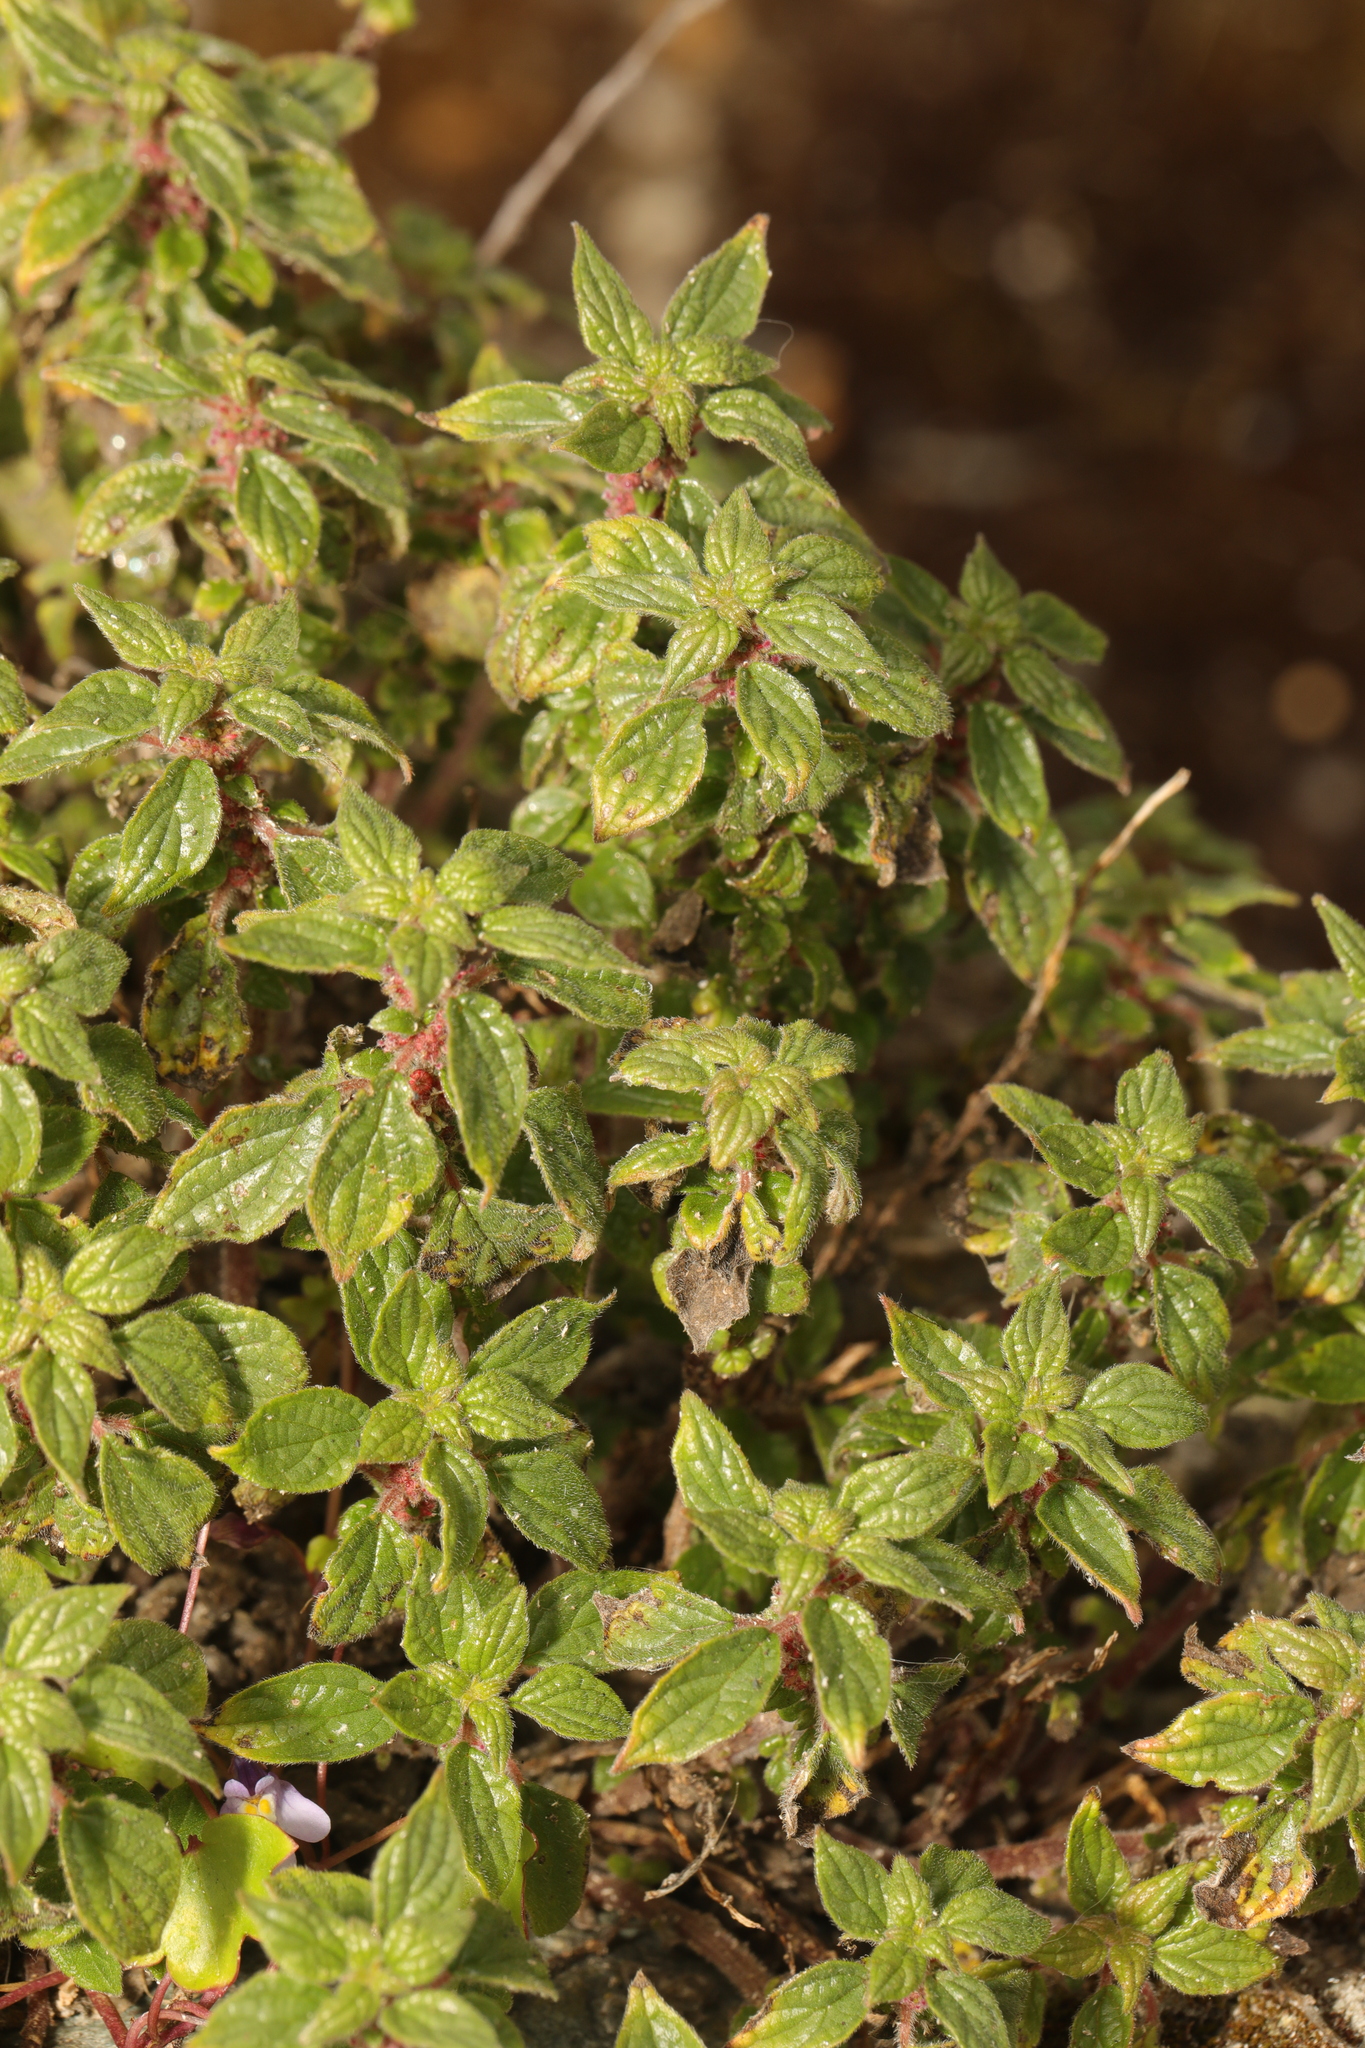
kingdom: Plantae
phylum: Tracheophyta
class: Magnoliopsida
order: Rosales
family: Urticaceae
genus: Parietaria
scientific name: Parietaria judaica
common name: Pellitory-of-the-wall
